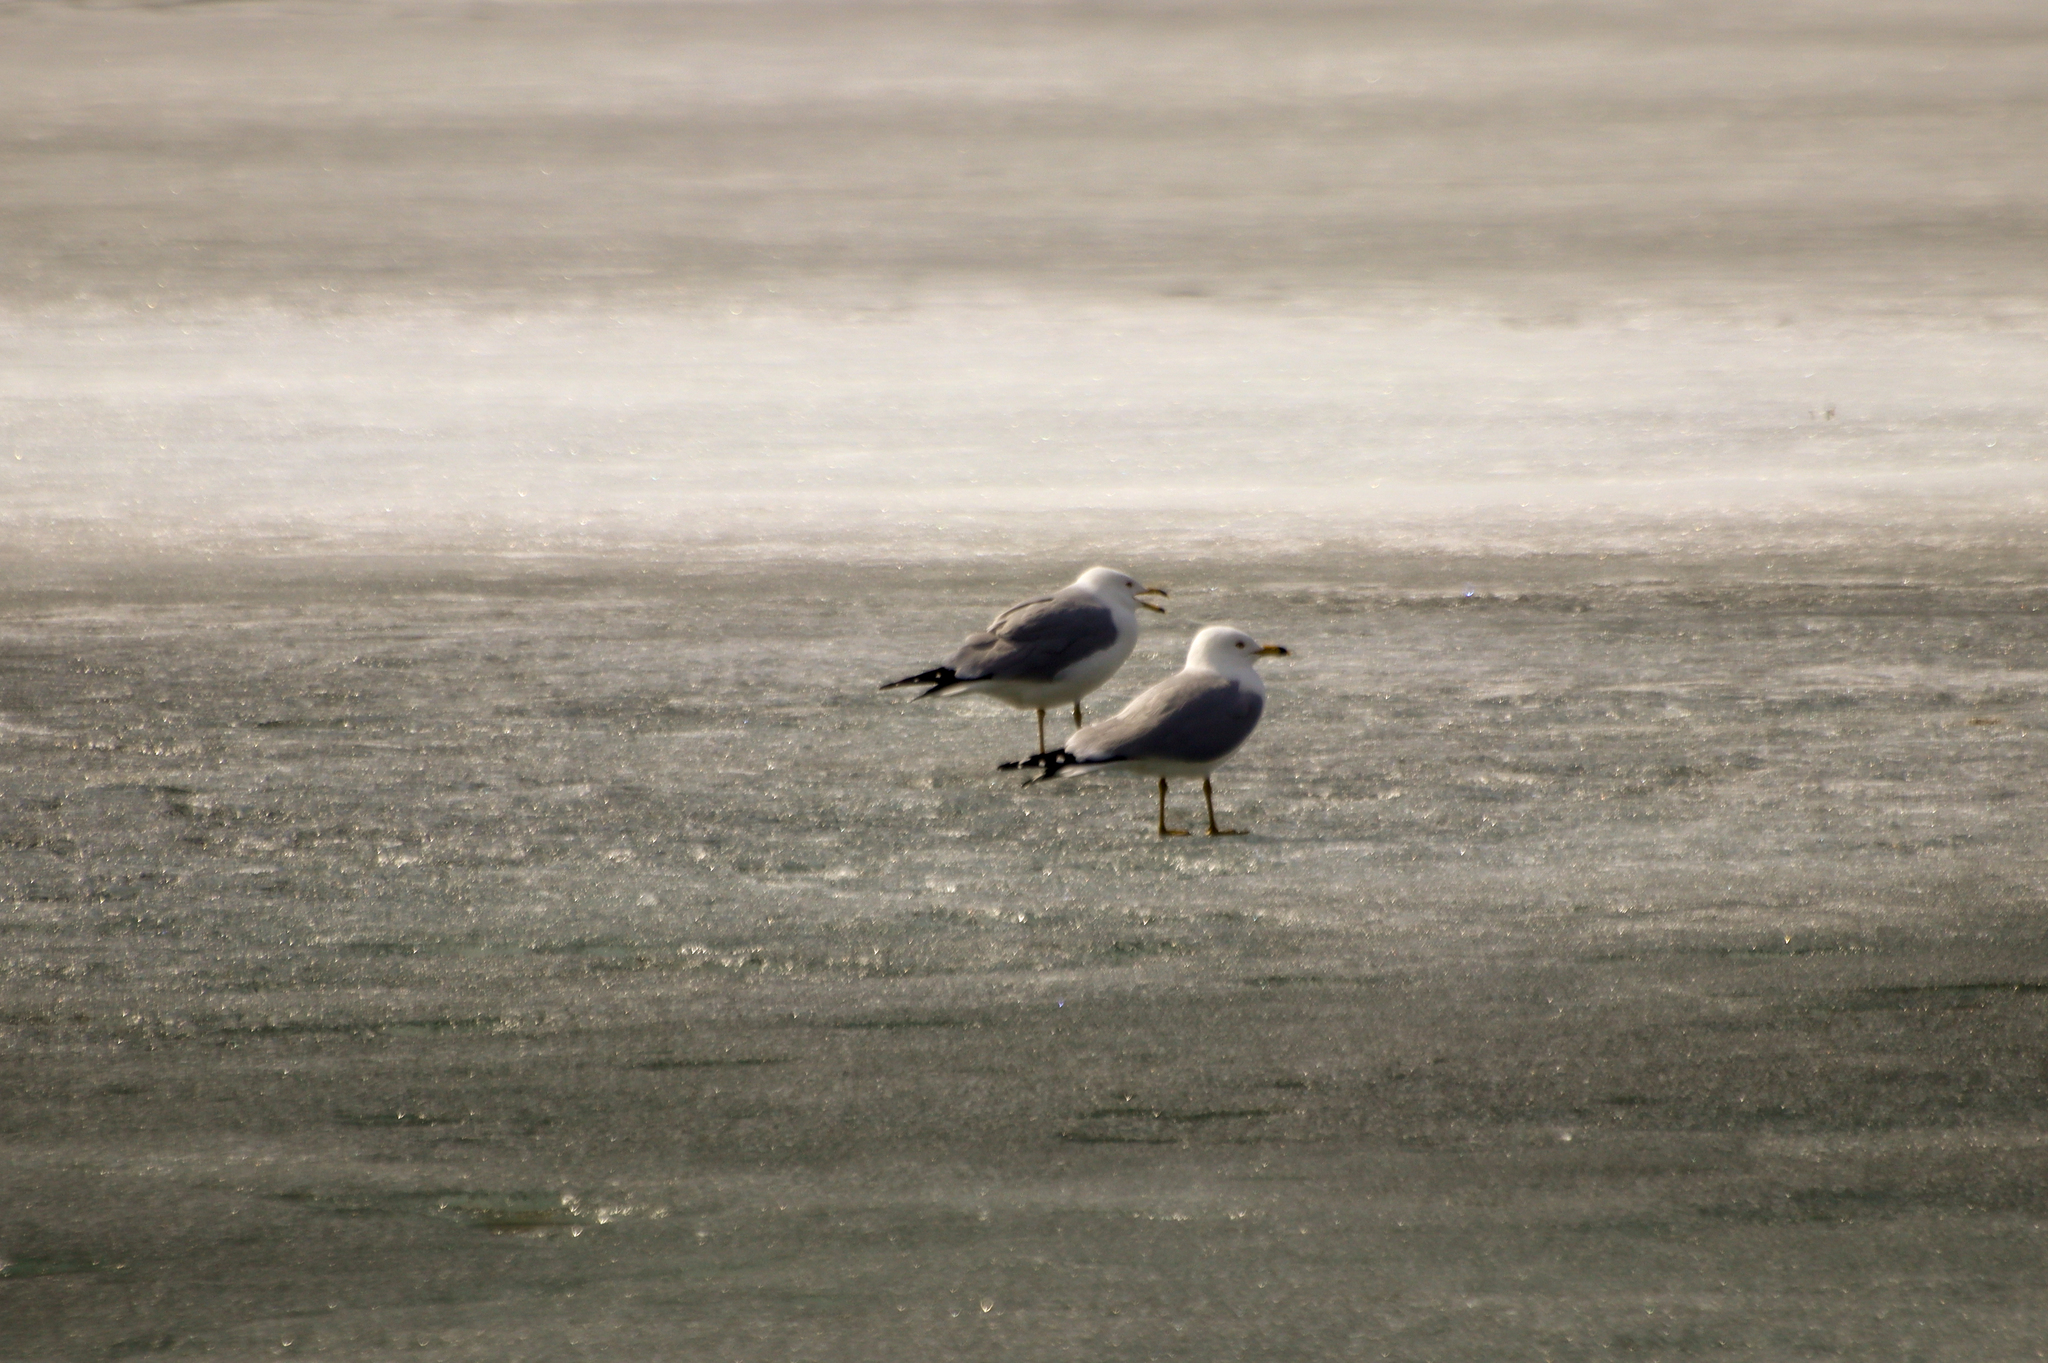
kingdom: Animalia
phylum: Chordata
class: Aves
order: Charadriiformes
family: Laridae
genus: Larus
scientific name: Larus delawarensis
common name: Ring-billed gull
